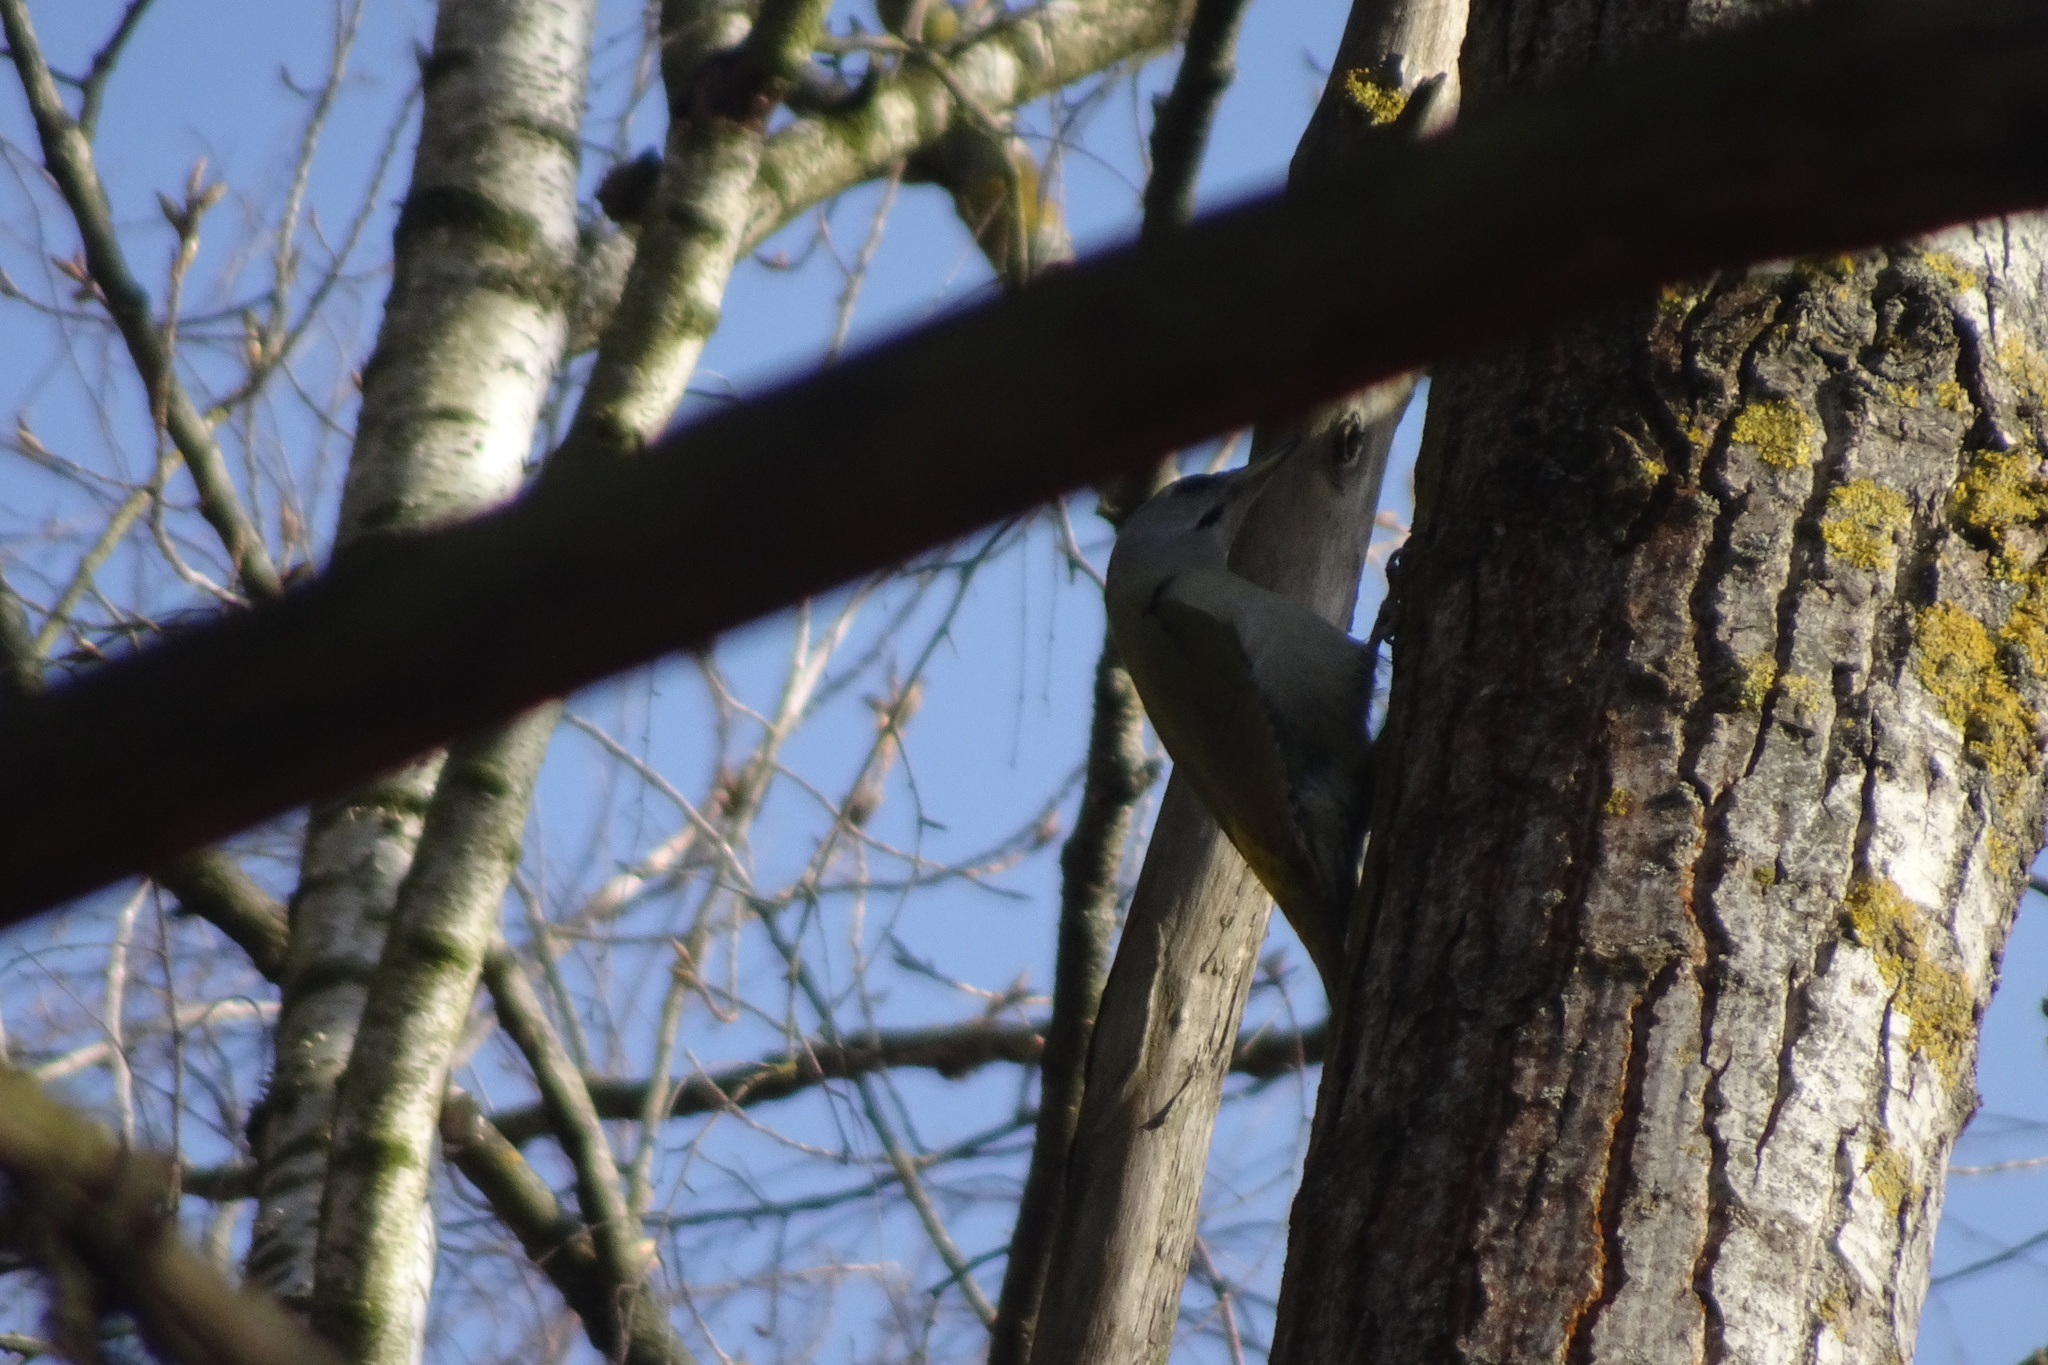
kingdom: Animalia
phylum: Chordata
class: Aves
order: Piciformes
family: Picidae
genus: Picus
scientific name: Picus canus
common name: Grey-headed woodpecker
